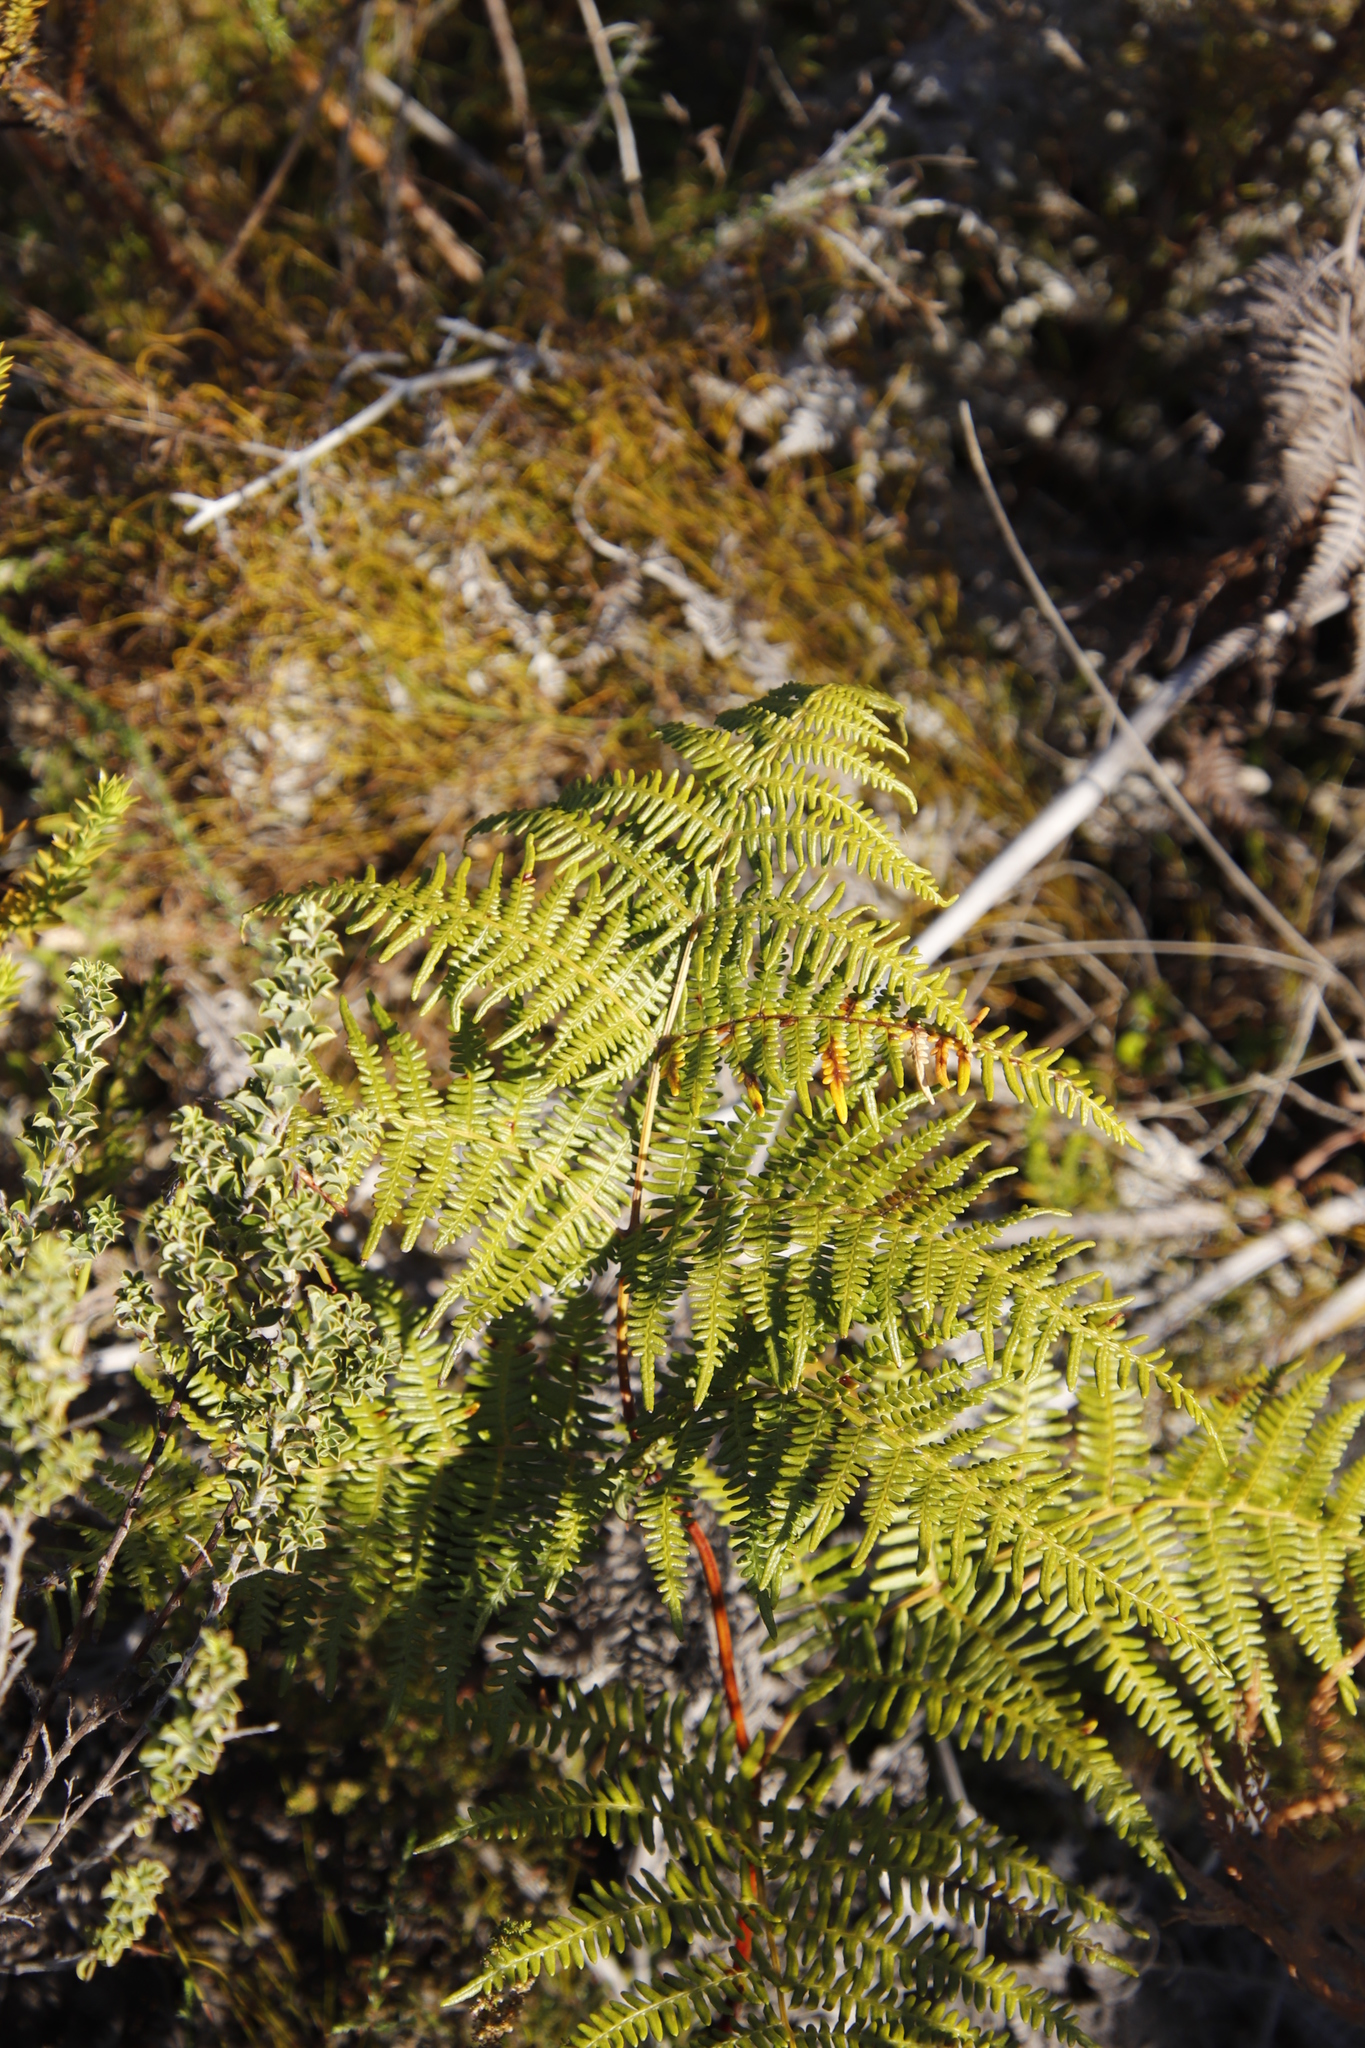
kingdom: Plantae
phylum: Tracheophyta
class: Polypodiopsida
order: Polypodiales
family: Dennstaedtiaceae
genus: Pteridium
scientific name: Pteridium aquilinum
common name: Bracken
